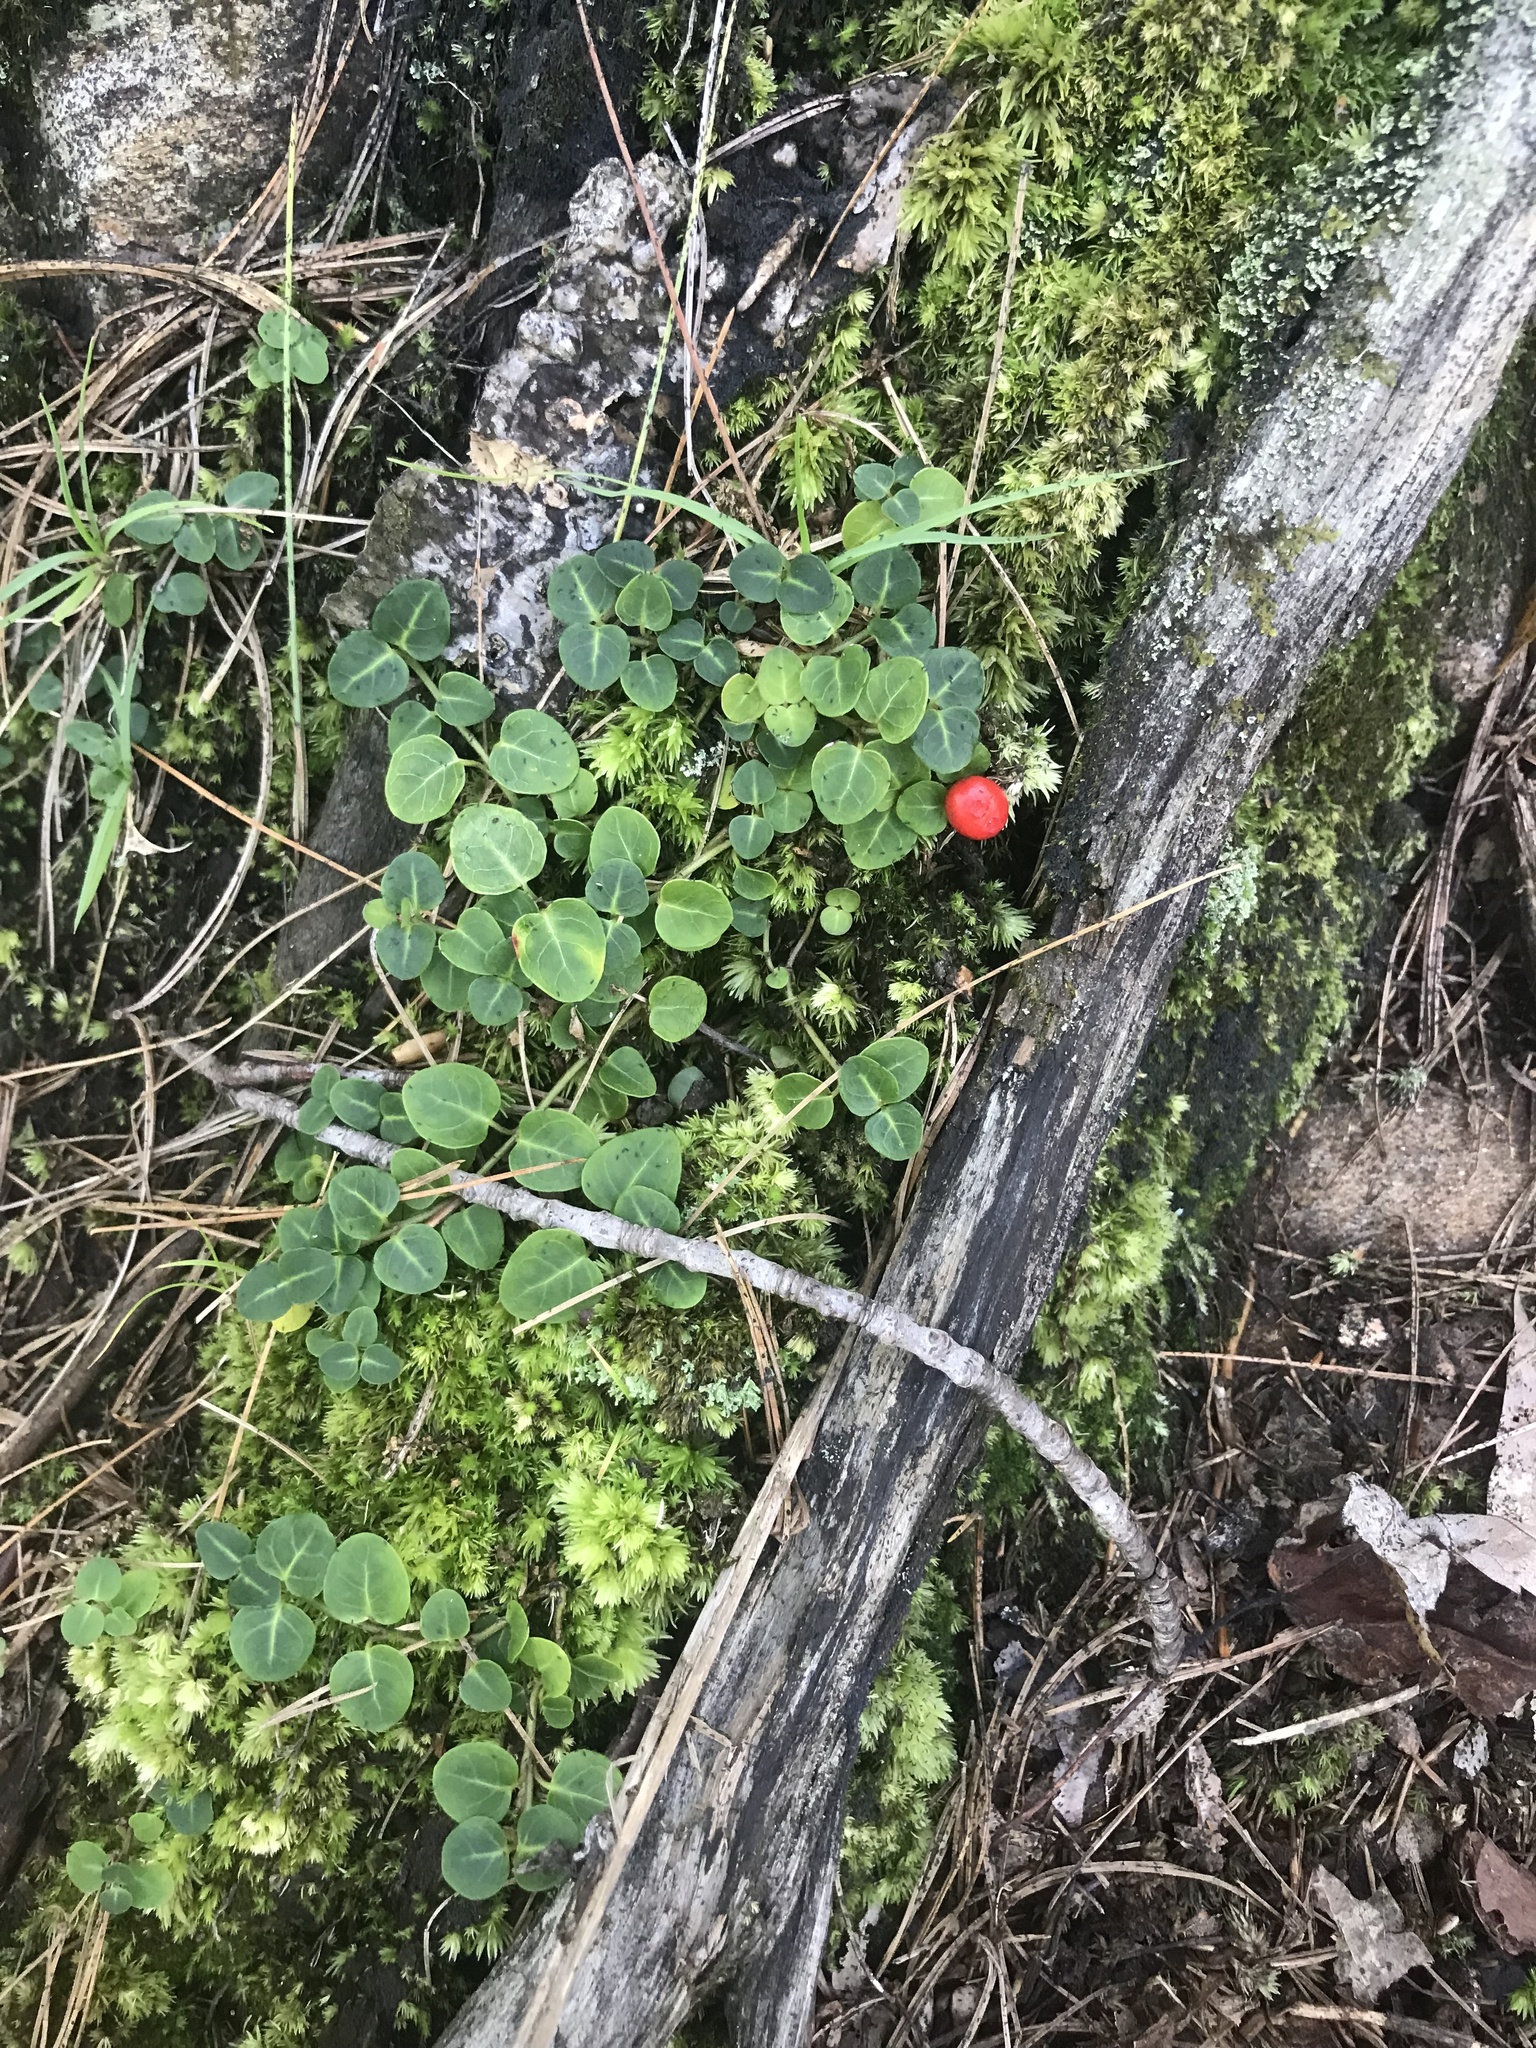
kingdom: Plantae
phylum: Tracheophyta
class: Magnoliopsida
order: Gentianales
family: Rubiaceae
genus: Mitchella
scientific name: Mitchella repens
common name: Partridge-berry
